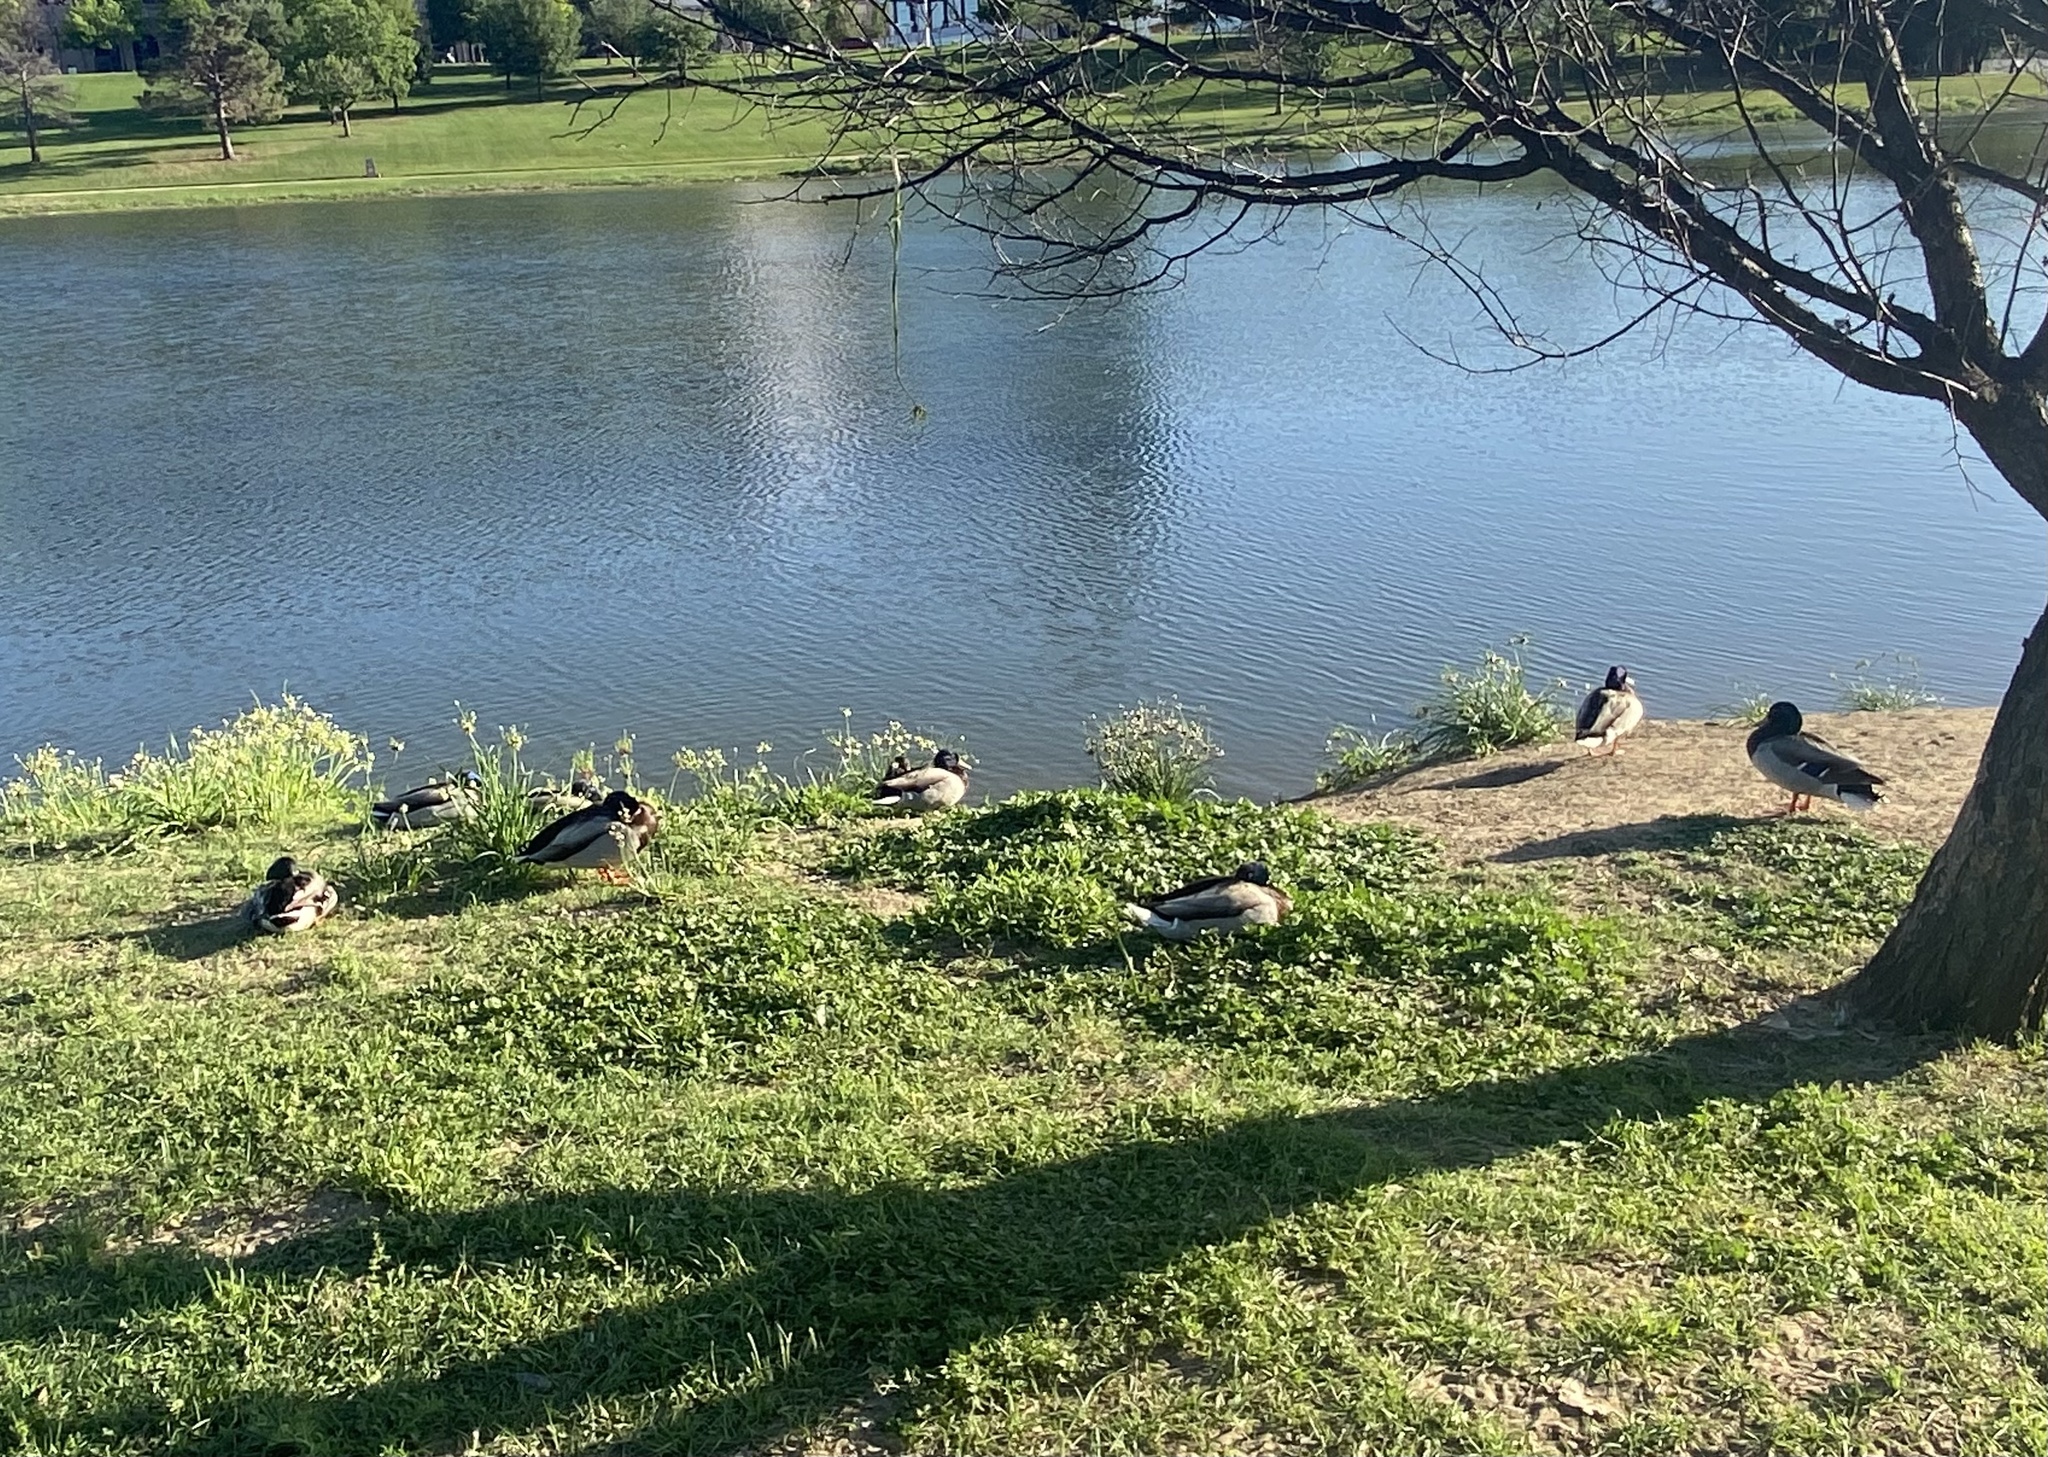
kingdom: Animalia
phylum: Chordata
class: Aves
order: Anseriformes
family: Anatidae
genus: Anas
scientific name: Anas platyrhynchos
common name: Mallard
